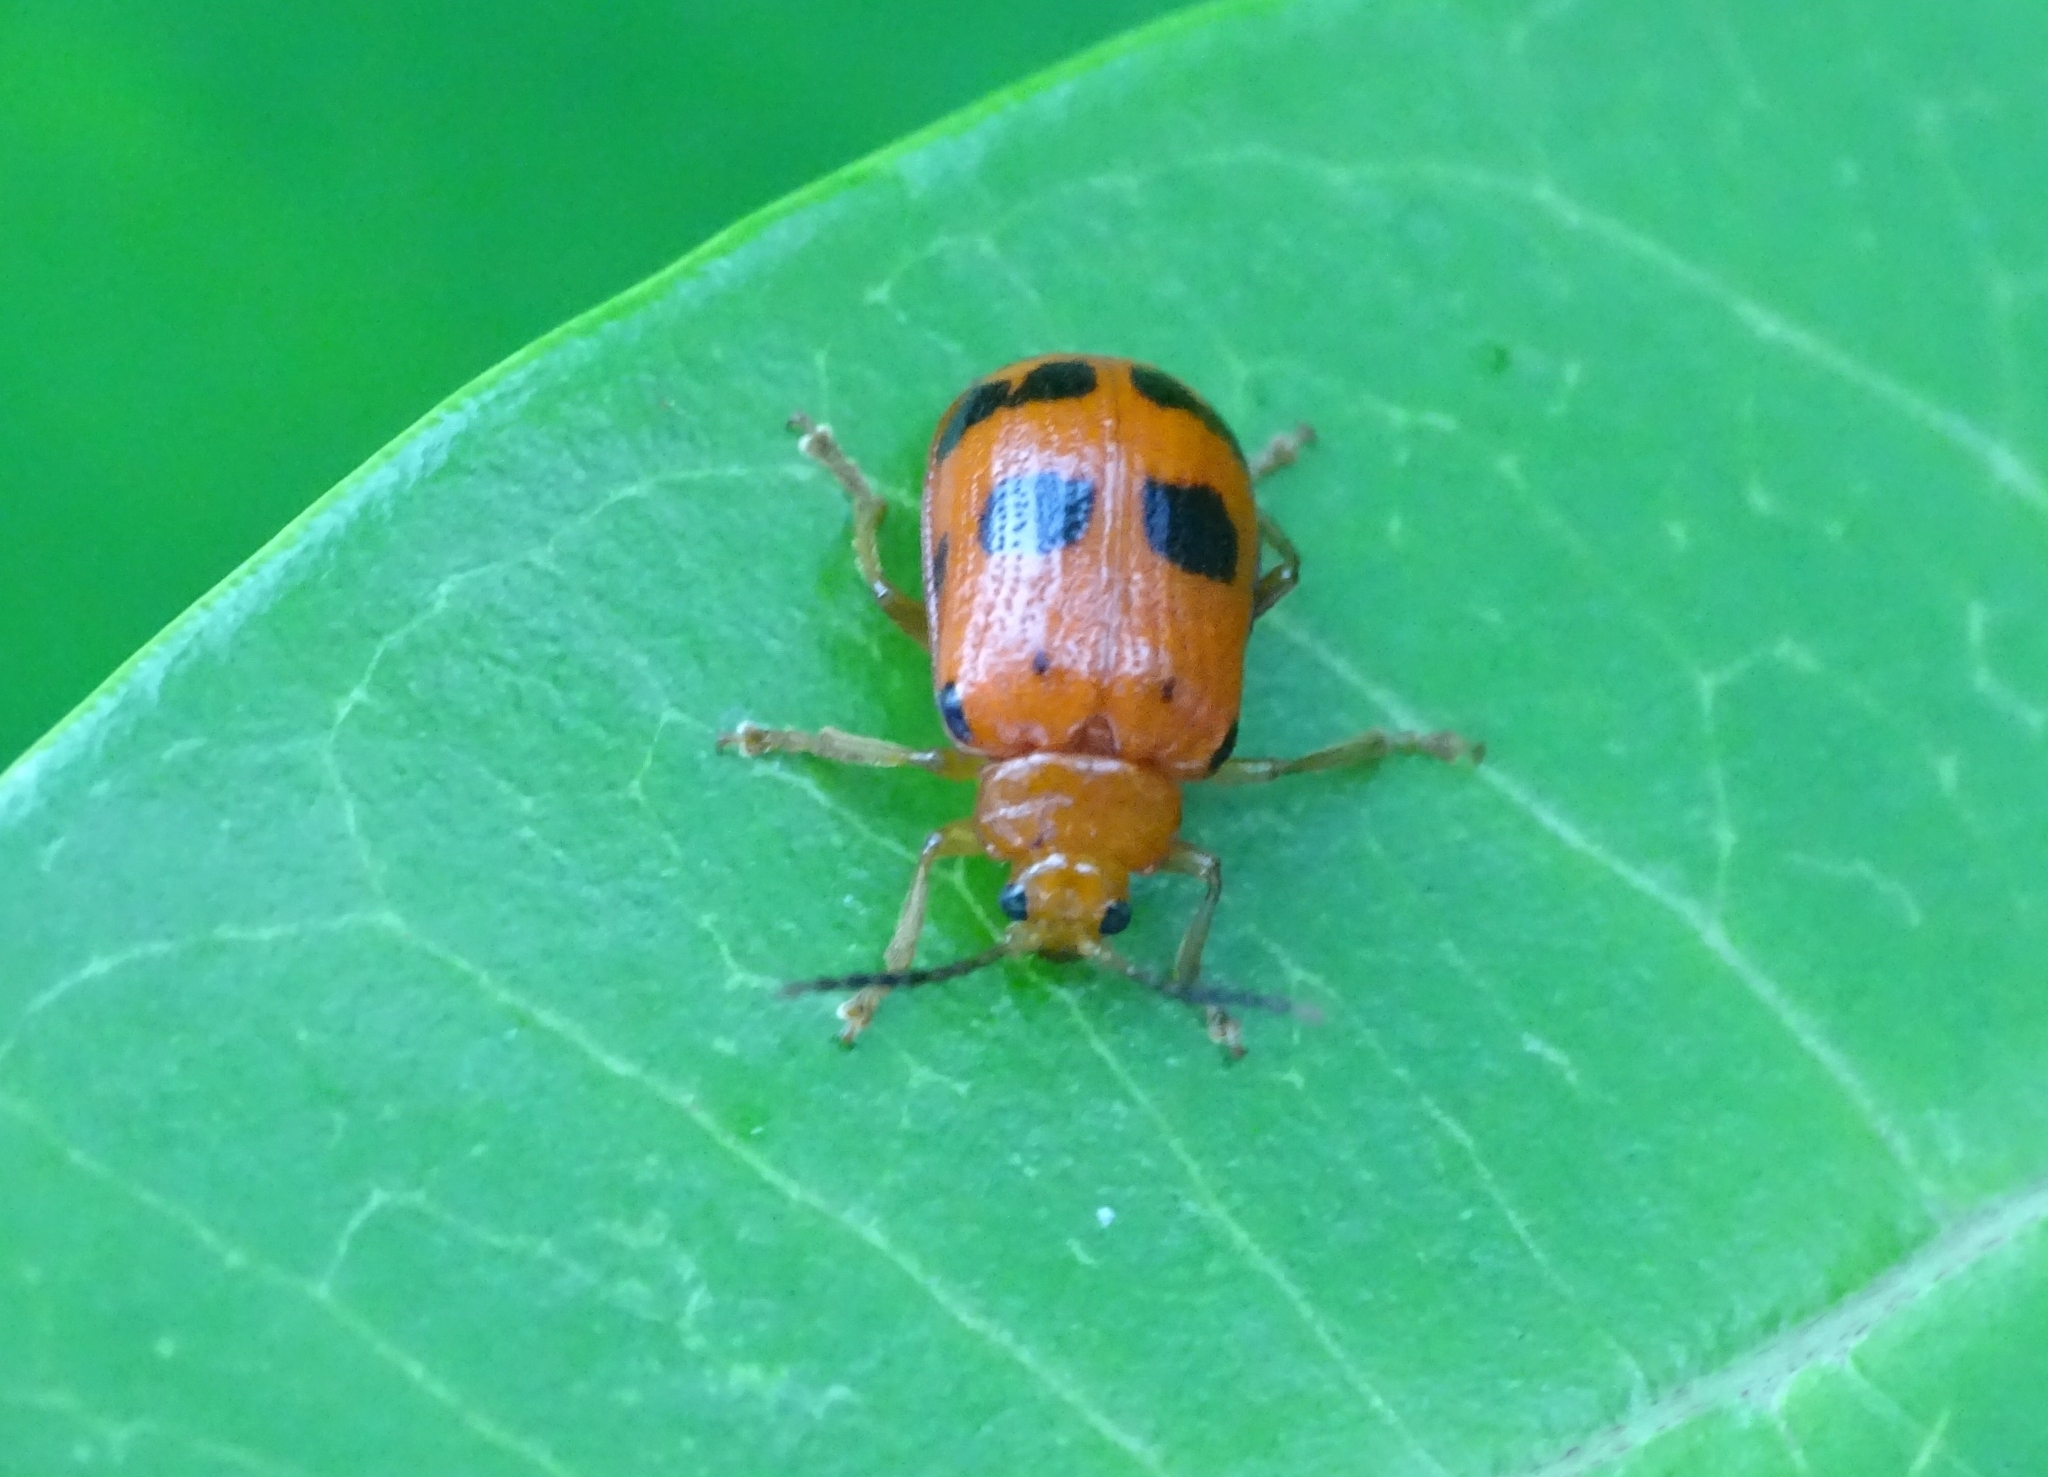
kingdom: Animalia
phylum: Arthropoda
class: Insecta
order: Coleoptera
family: Chrysomelidae
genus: Sphenoraia
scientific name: Sphenoraia
